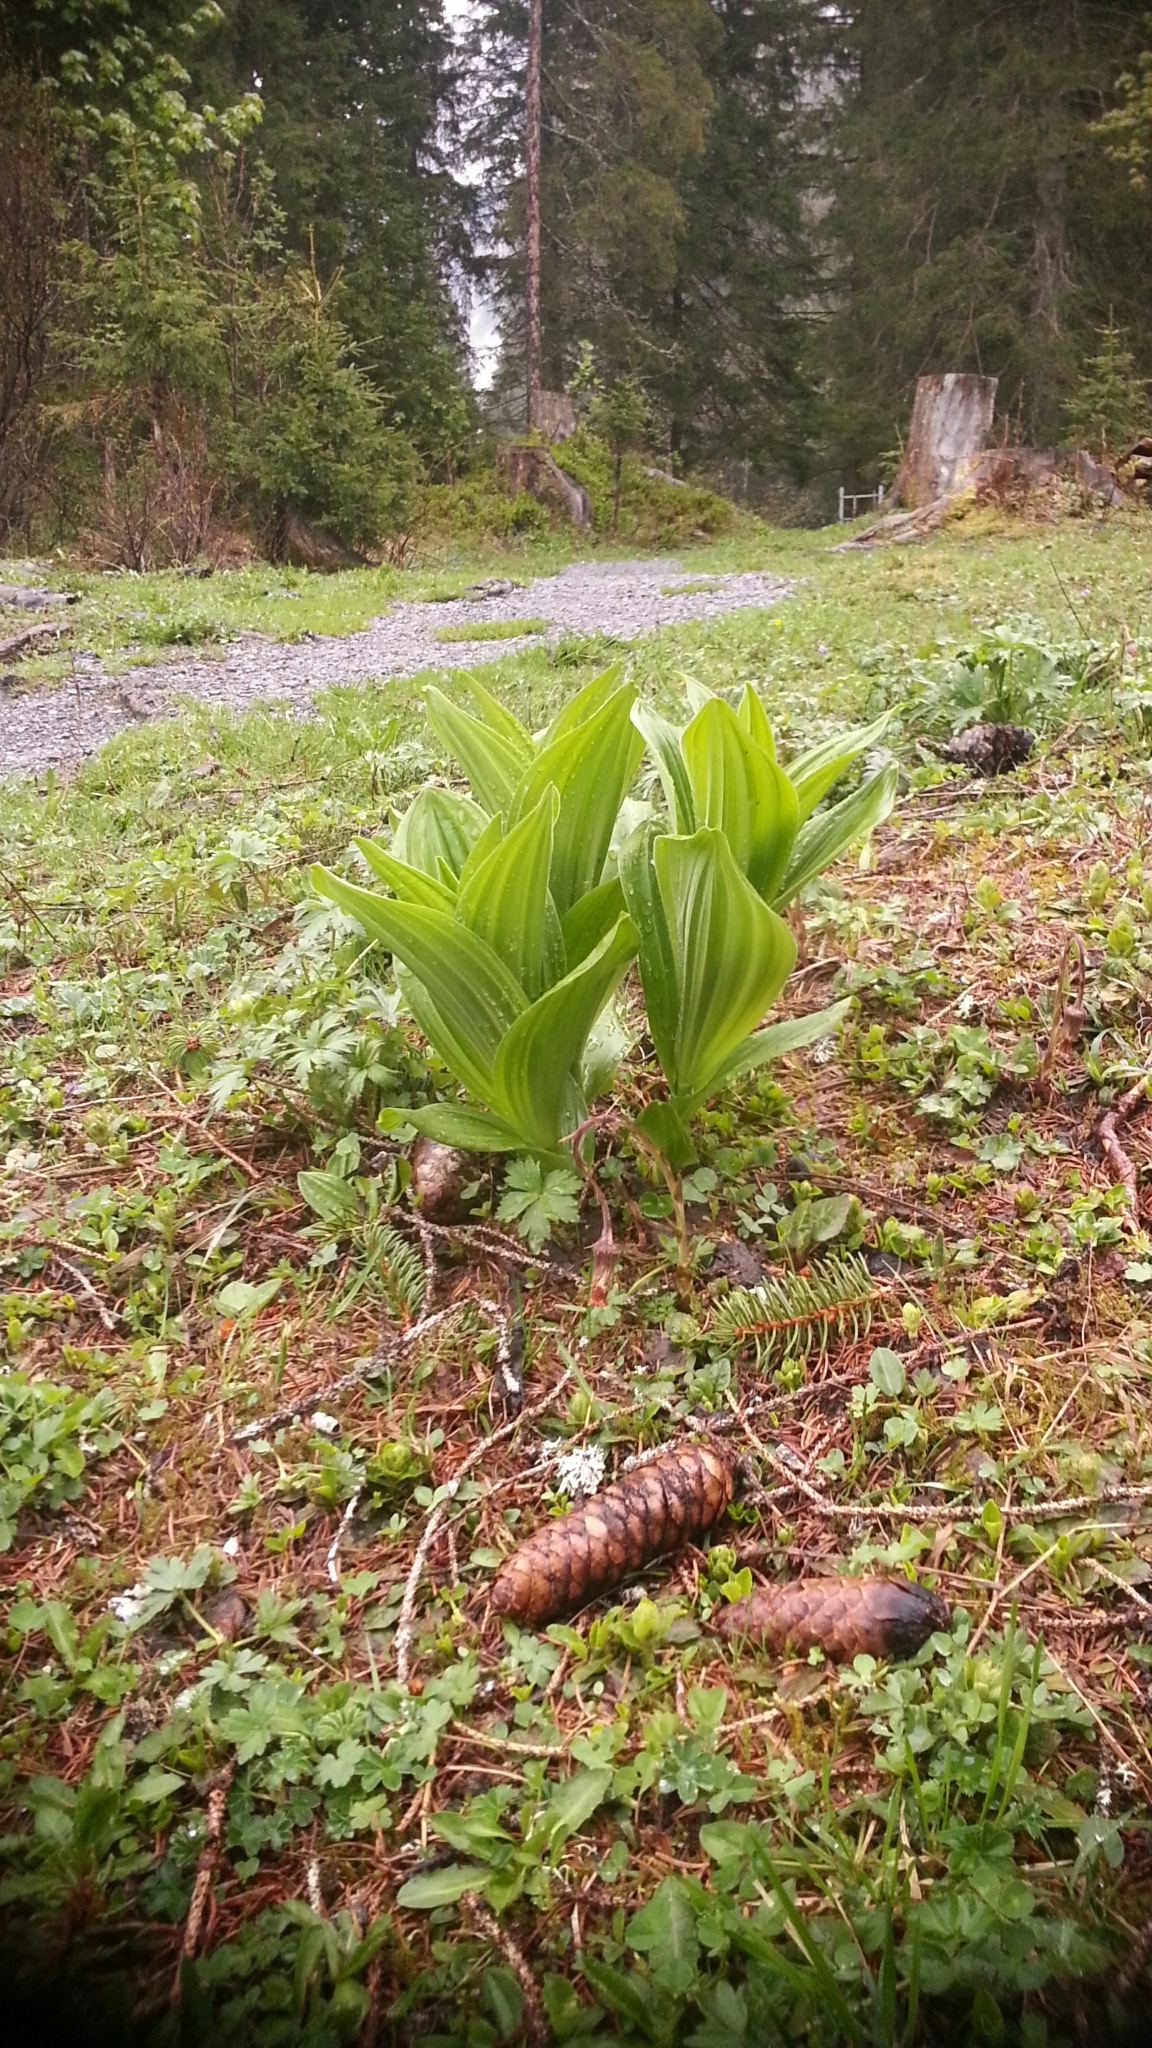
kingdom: Plantae
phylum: Tracheophyta
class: Liliopsida
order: Liliales
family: Melanthiaceae
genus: Veratrum
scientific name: Veratrum album
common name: White veratrum
